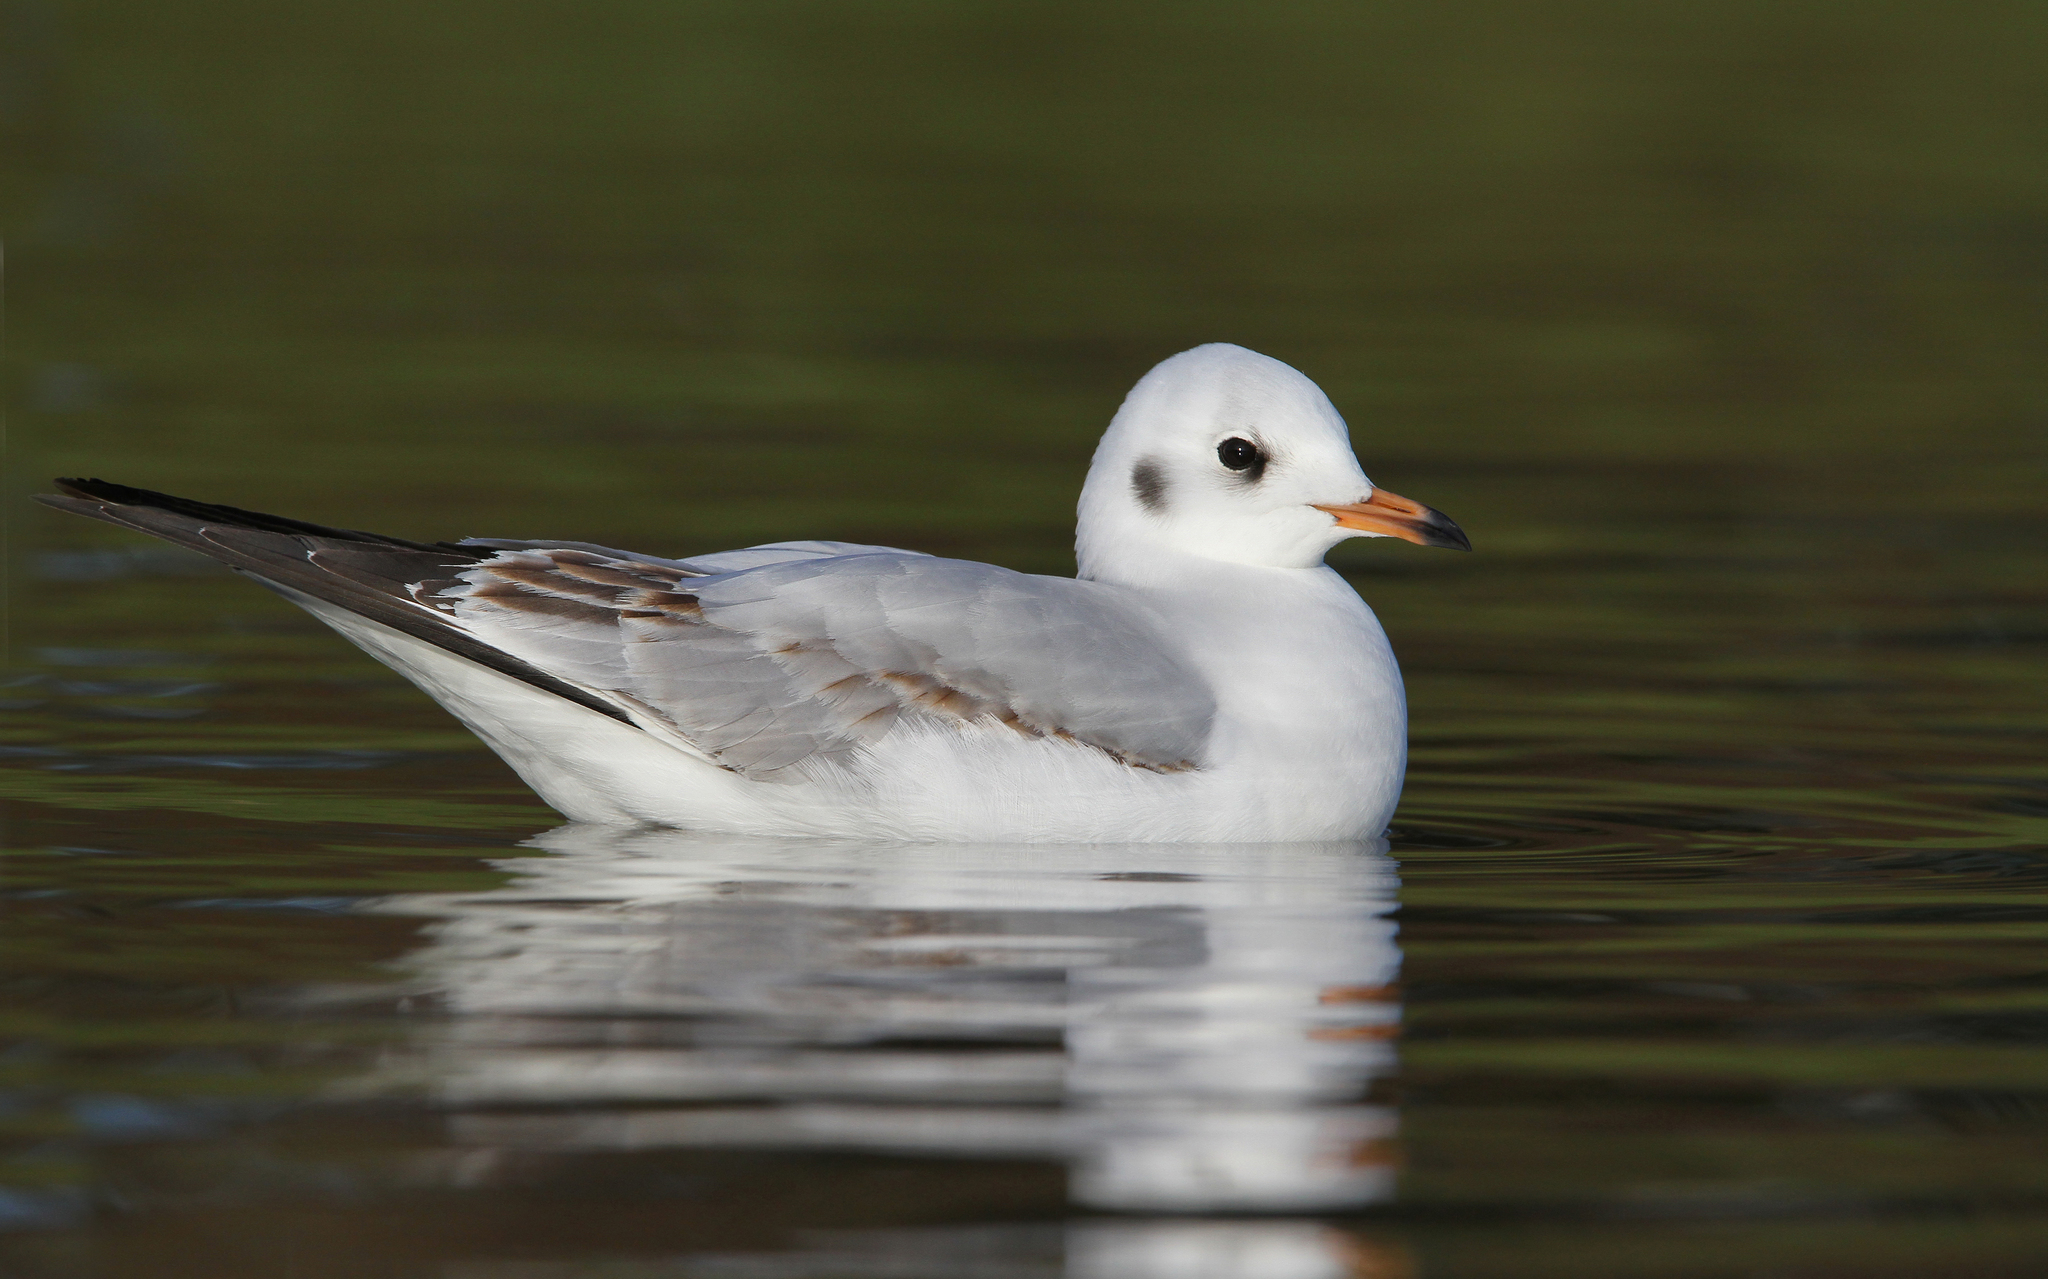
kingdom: Animalia
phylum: Chordata
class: Aves
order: Charadriiformes
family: Laridae
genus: Chroicocephalus
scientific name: Chroicocephalus ridibundus
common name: Black-headed gull
